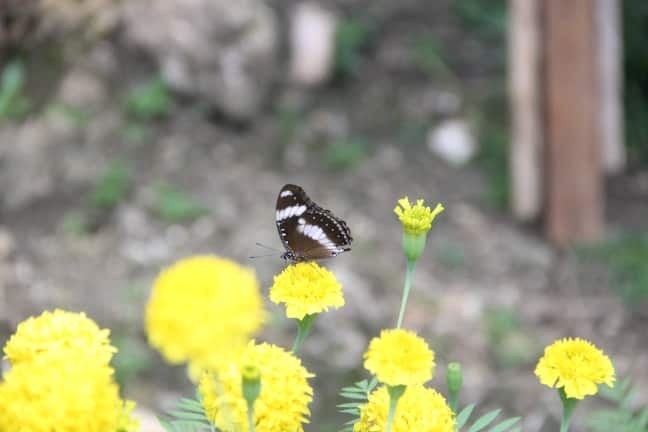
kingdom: Animalia
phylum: Arthropoda
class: Insecta
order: Lepidoptera
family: Nymphalidae
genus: Hypolimnas
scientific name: Hypolimnas bolina
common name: Great eggfly
